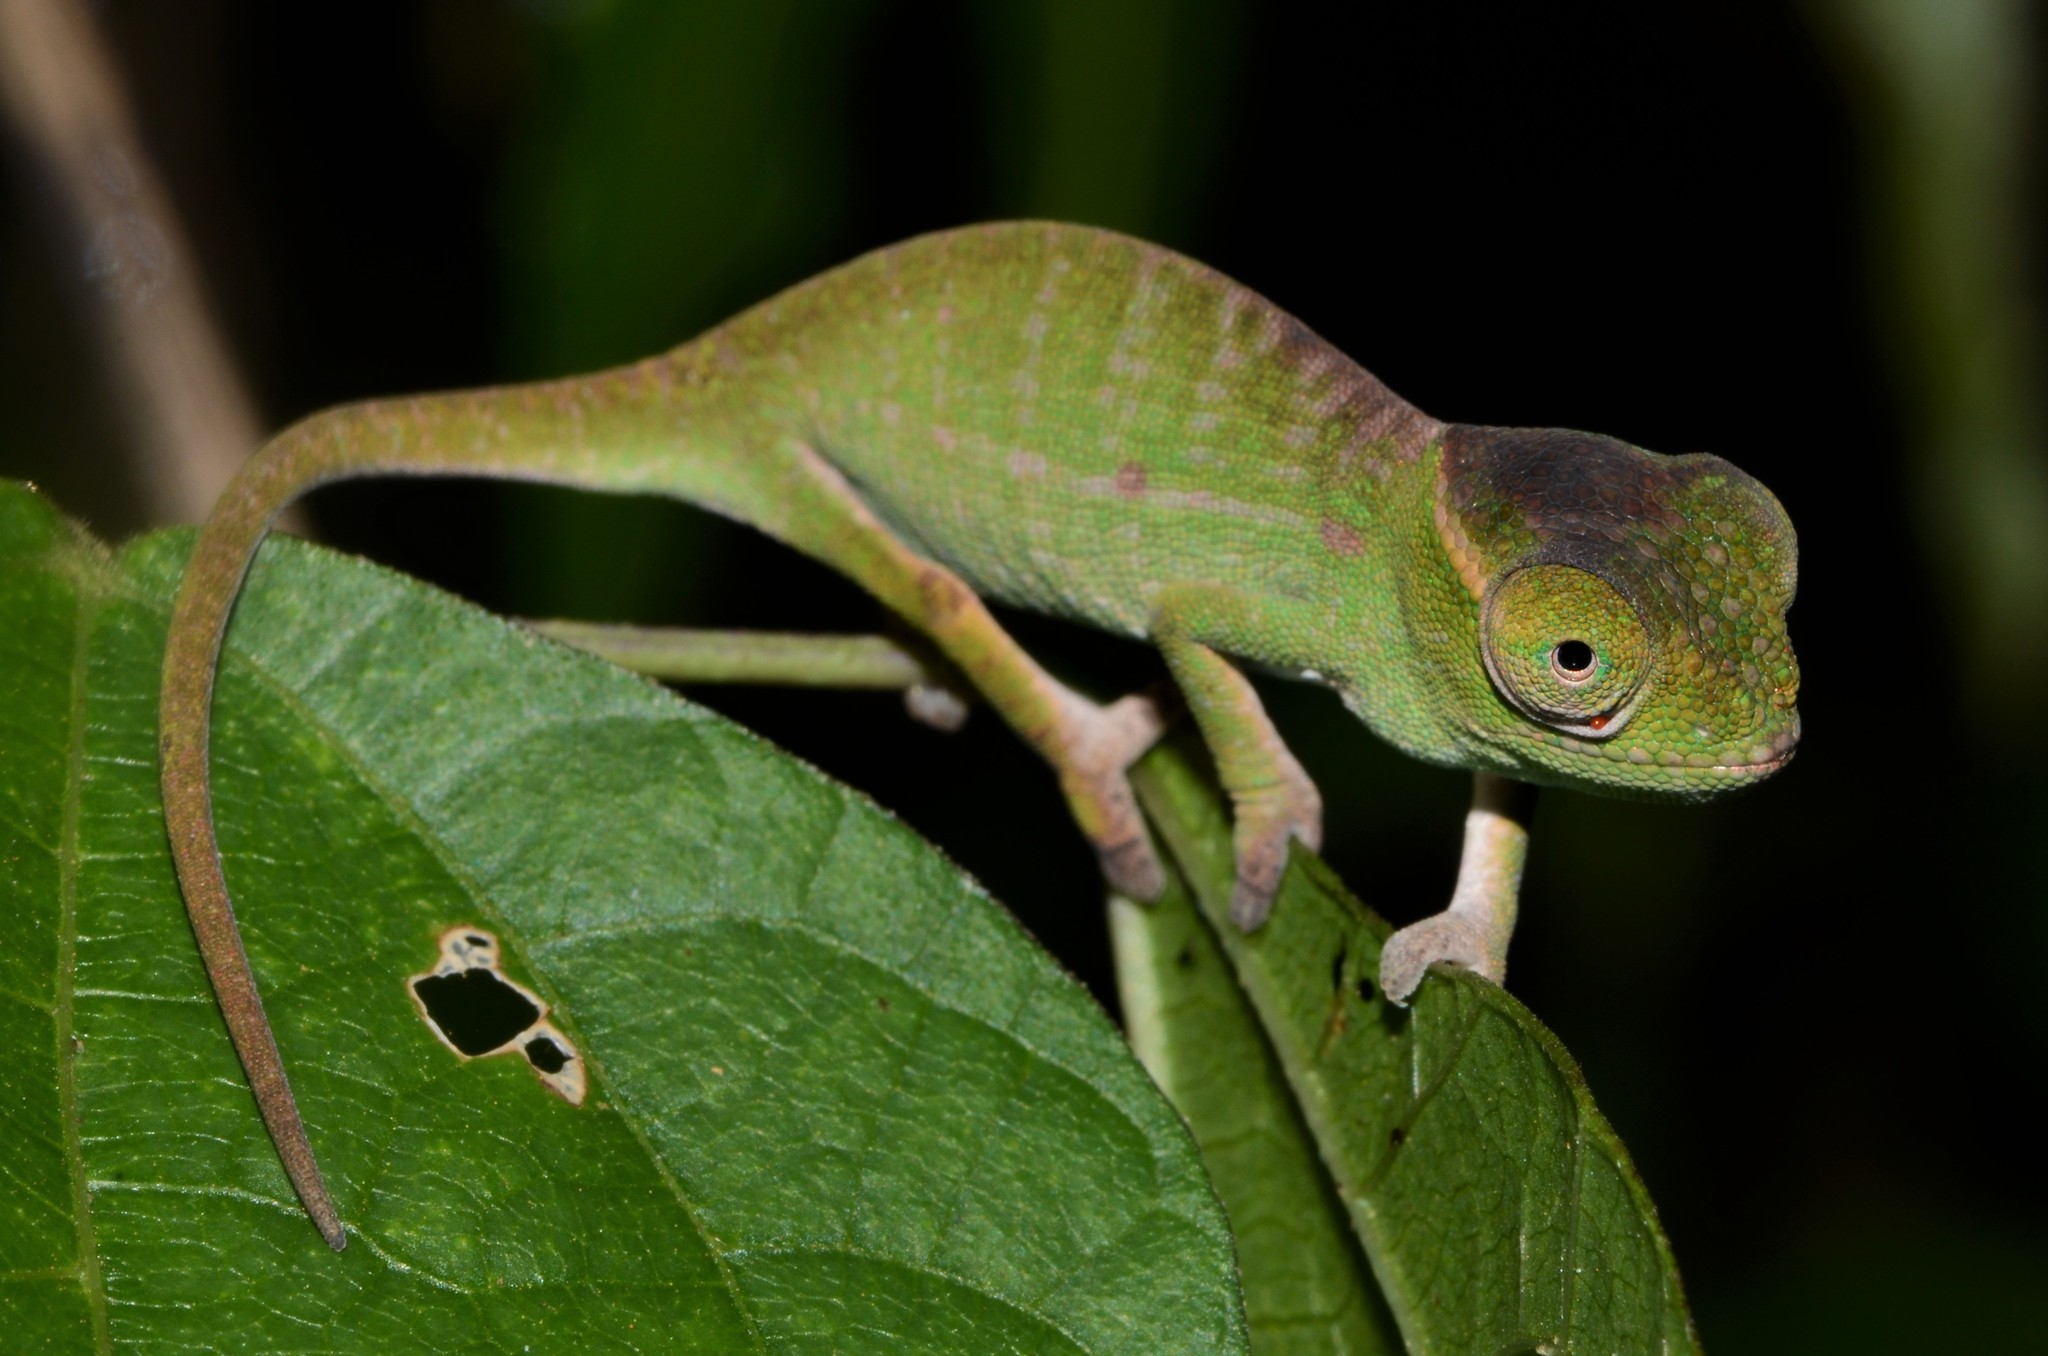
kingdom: Animalia
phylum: Chordata
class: Squamata
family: Chamaeleonidae
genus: Furcifer
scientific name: Furcifer petteri
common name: Petter's chameleon
